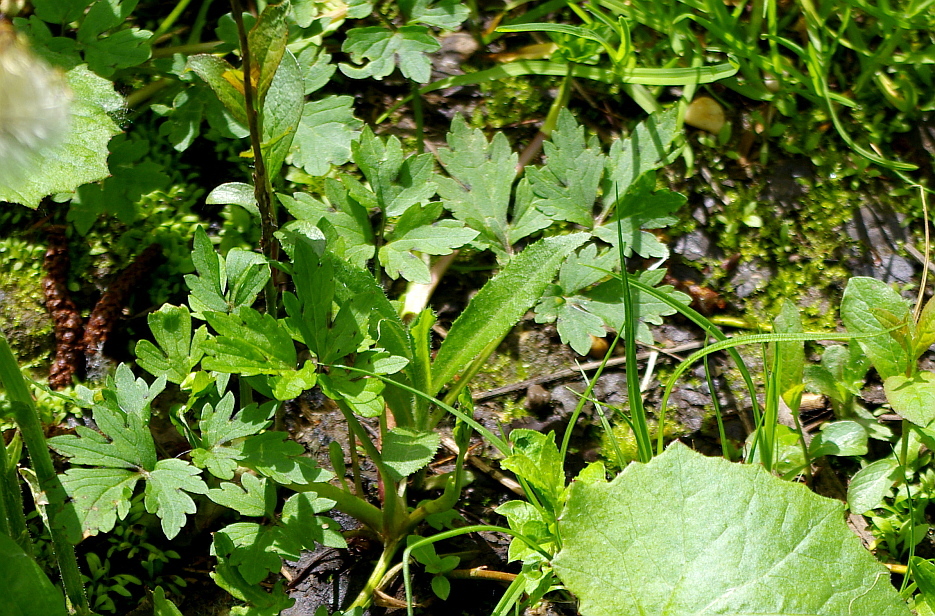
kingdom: Plantae
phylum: Tracheophyta
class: Magnoliopsida
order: Ranunculales
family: Ranunculaceae
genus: Ranunculus
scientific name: Ranunculus repens
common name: Creeping buttercup
